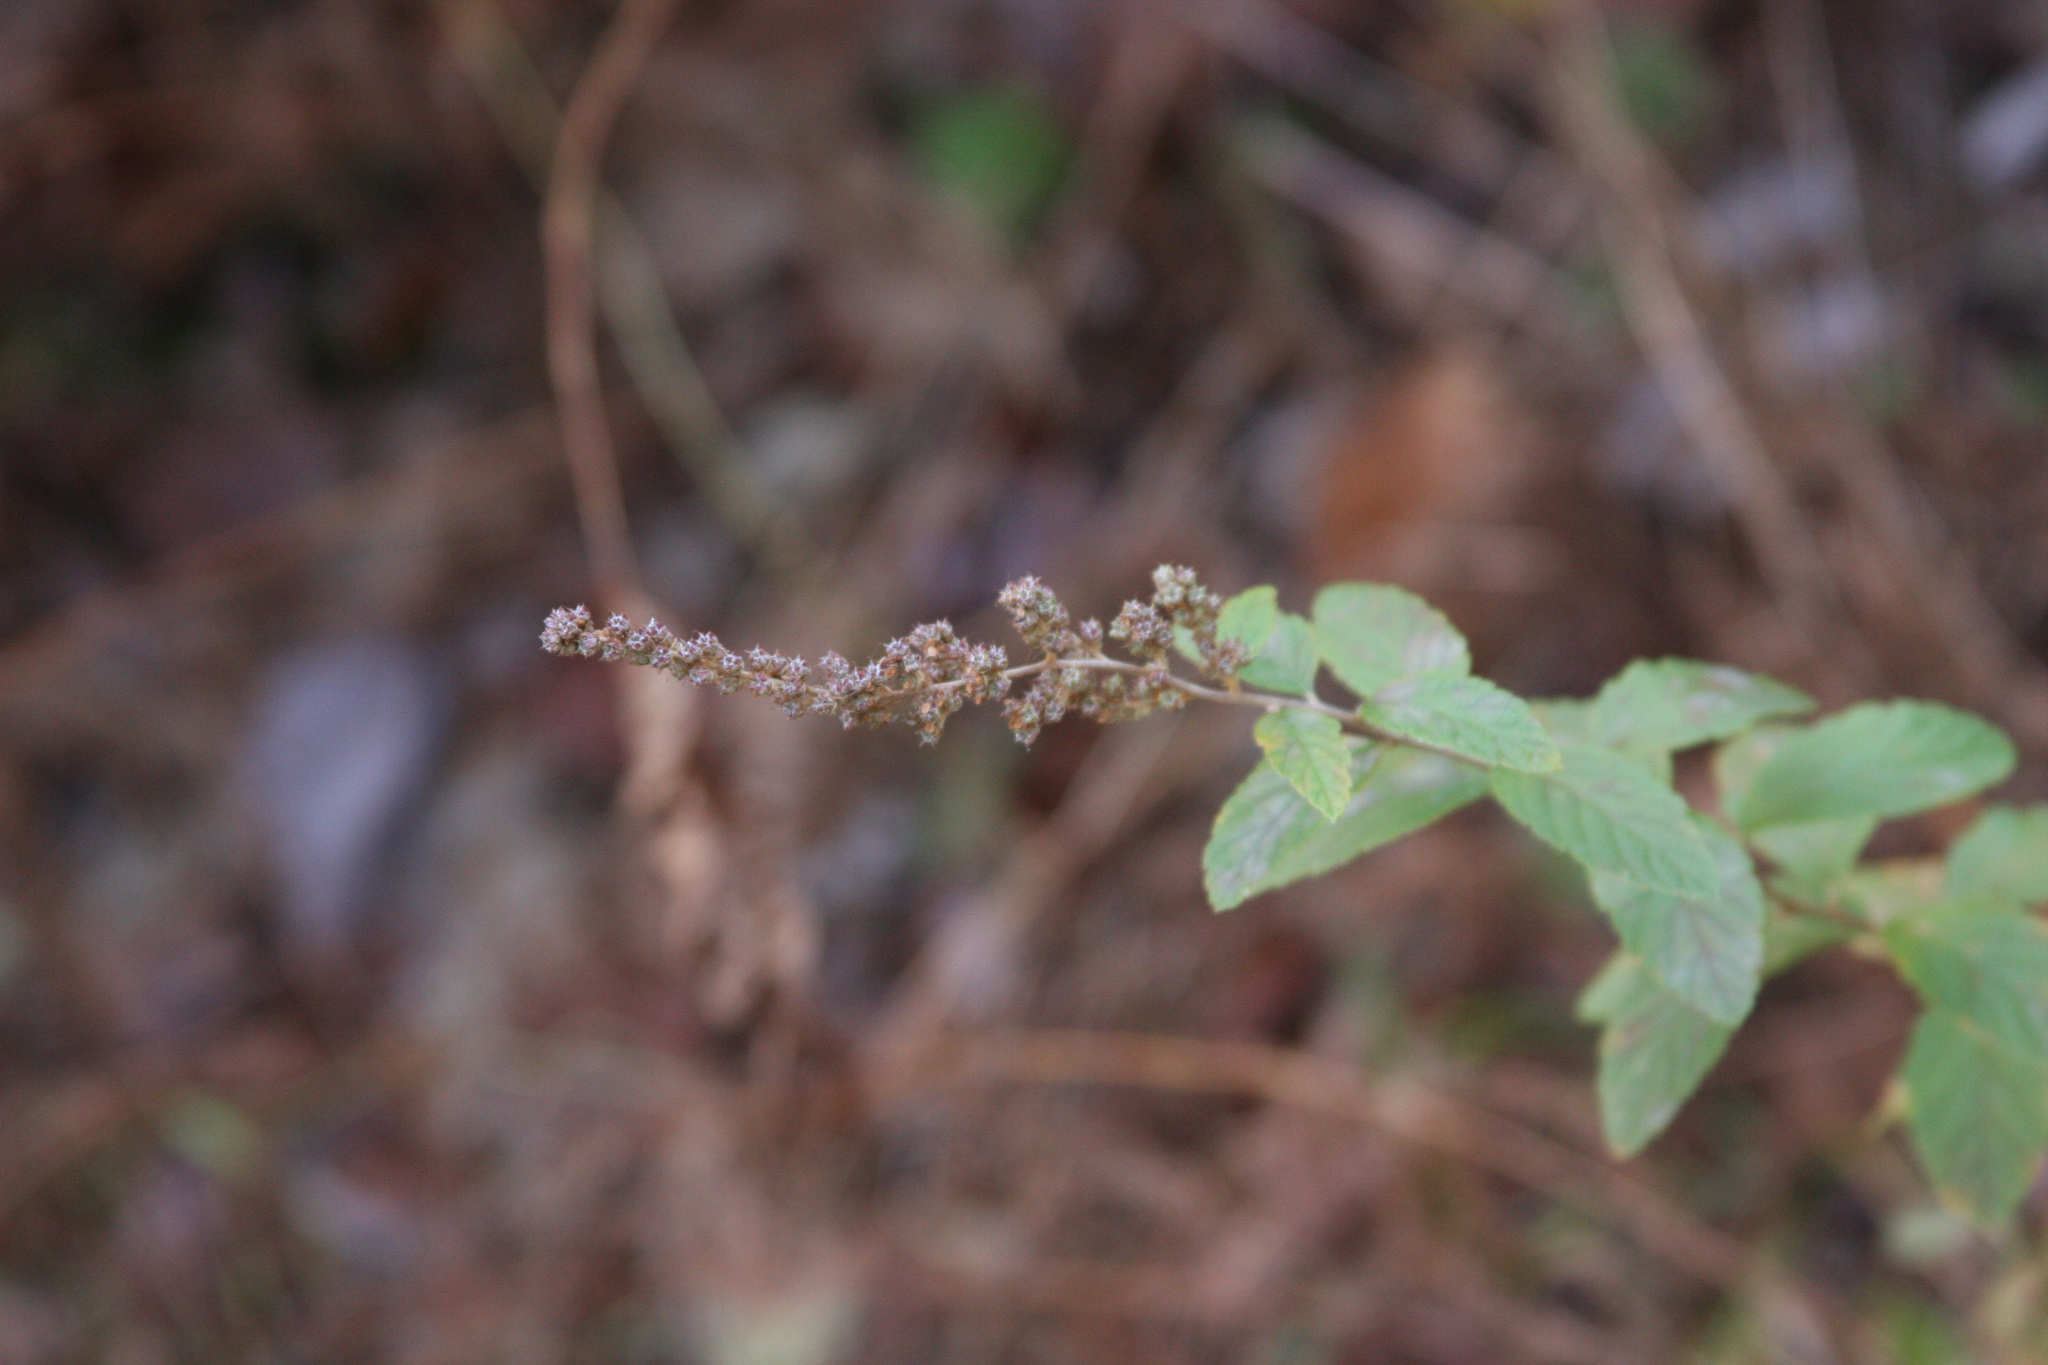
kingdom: Plantae
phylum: Tracheophyta
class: Magnoliopsida
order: Rosales
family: Rosaceae
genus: Spiraea
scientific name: Spiraea tomentosa
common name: Hardhack
